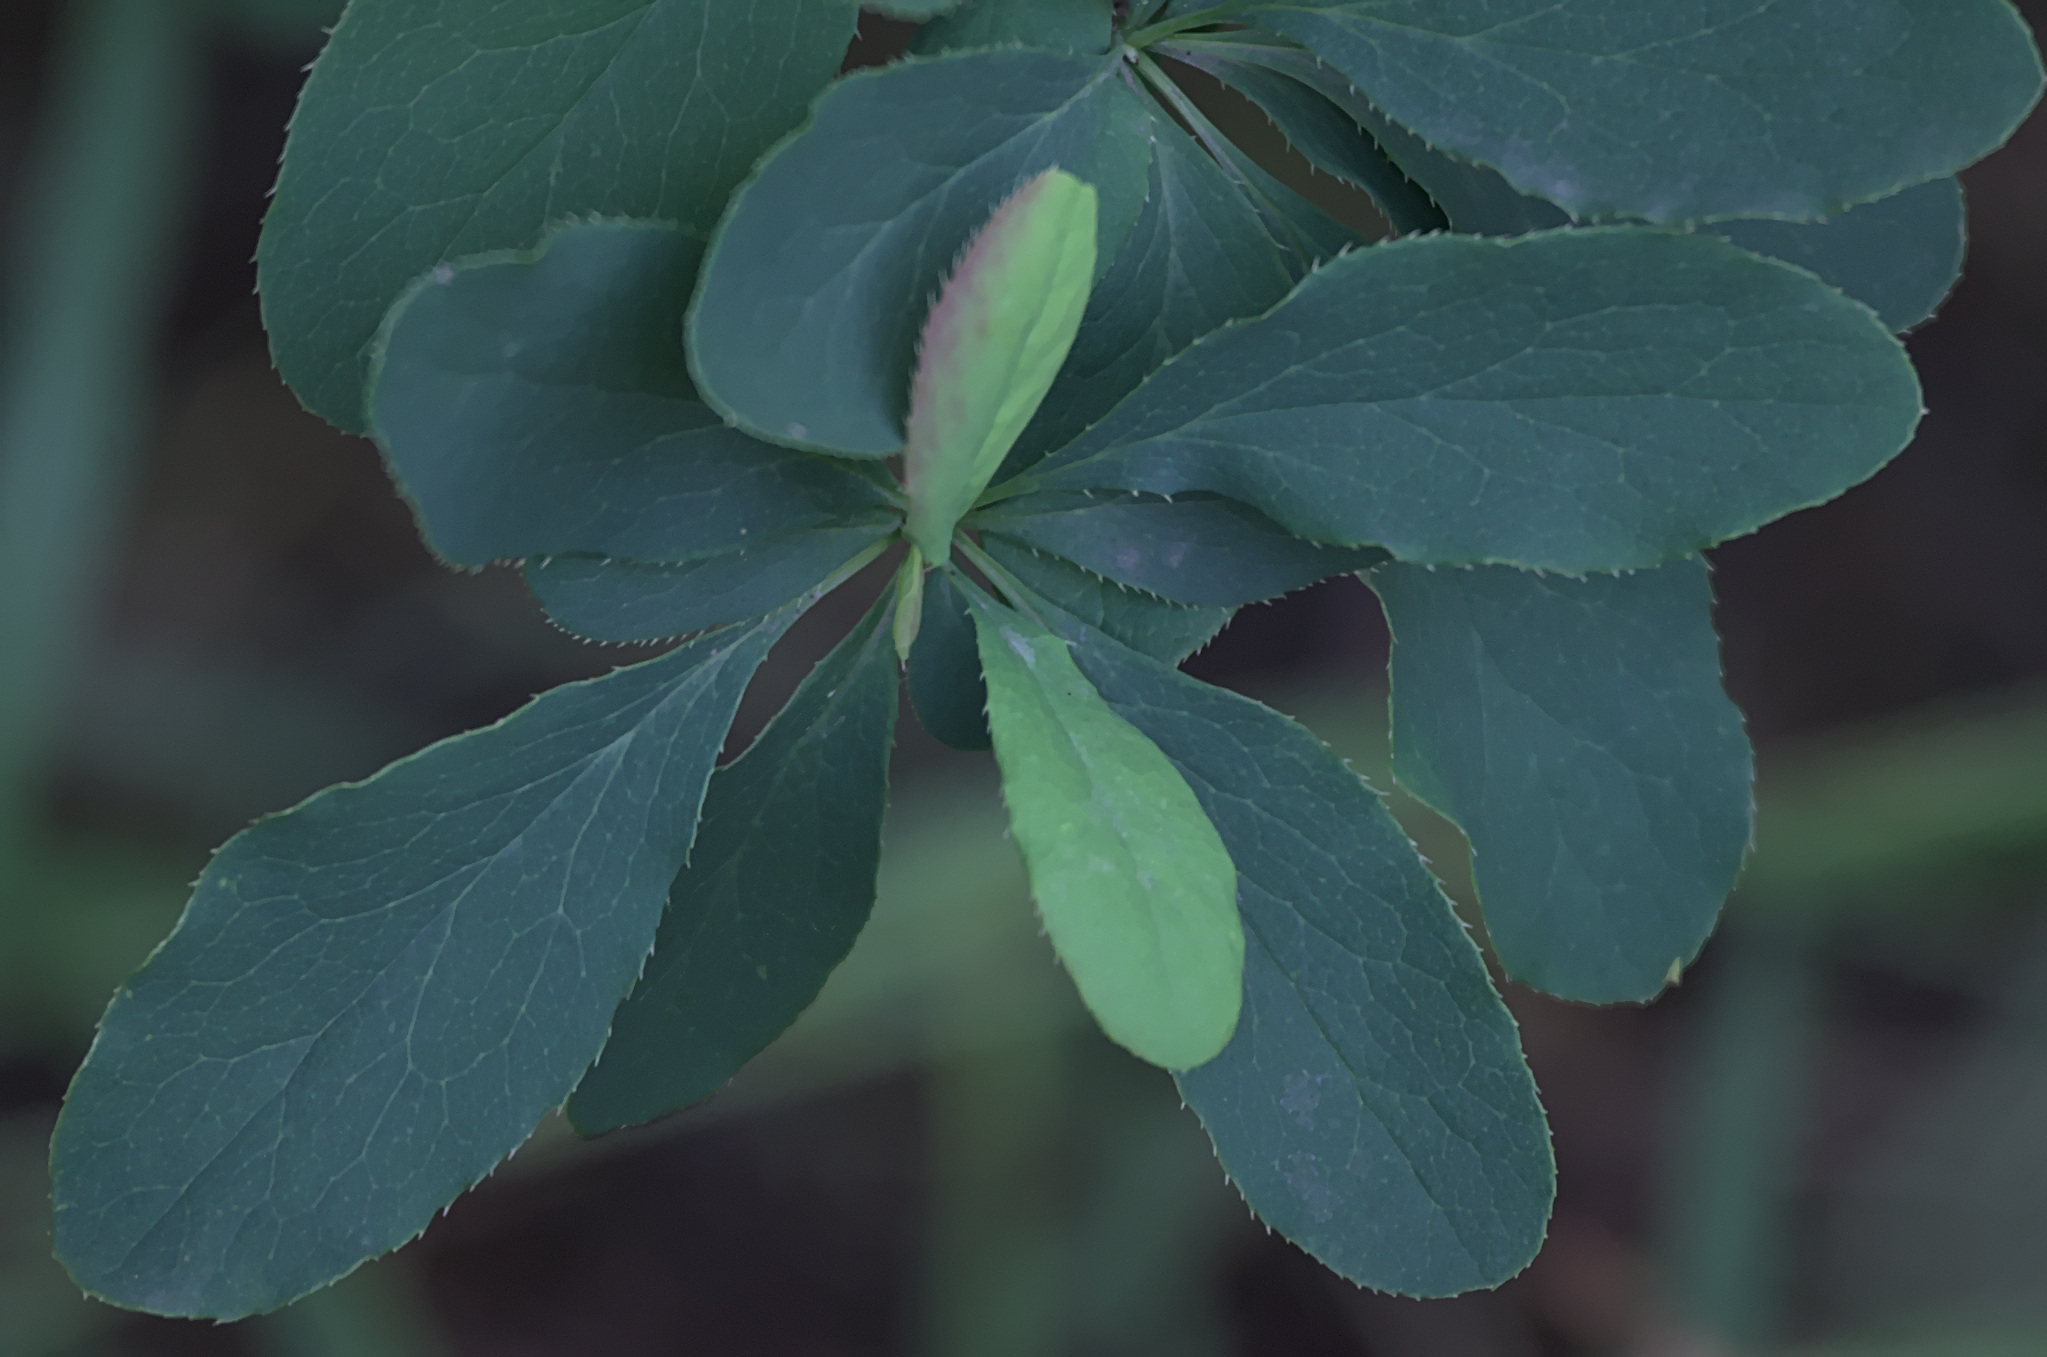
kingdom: Plantae
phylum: Tracheophyta
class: Magnoliopsida
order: Ranunculales
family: Berberidaceae
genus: Berberis
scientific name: Berberis vulgaris
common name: Barberry
